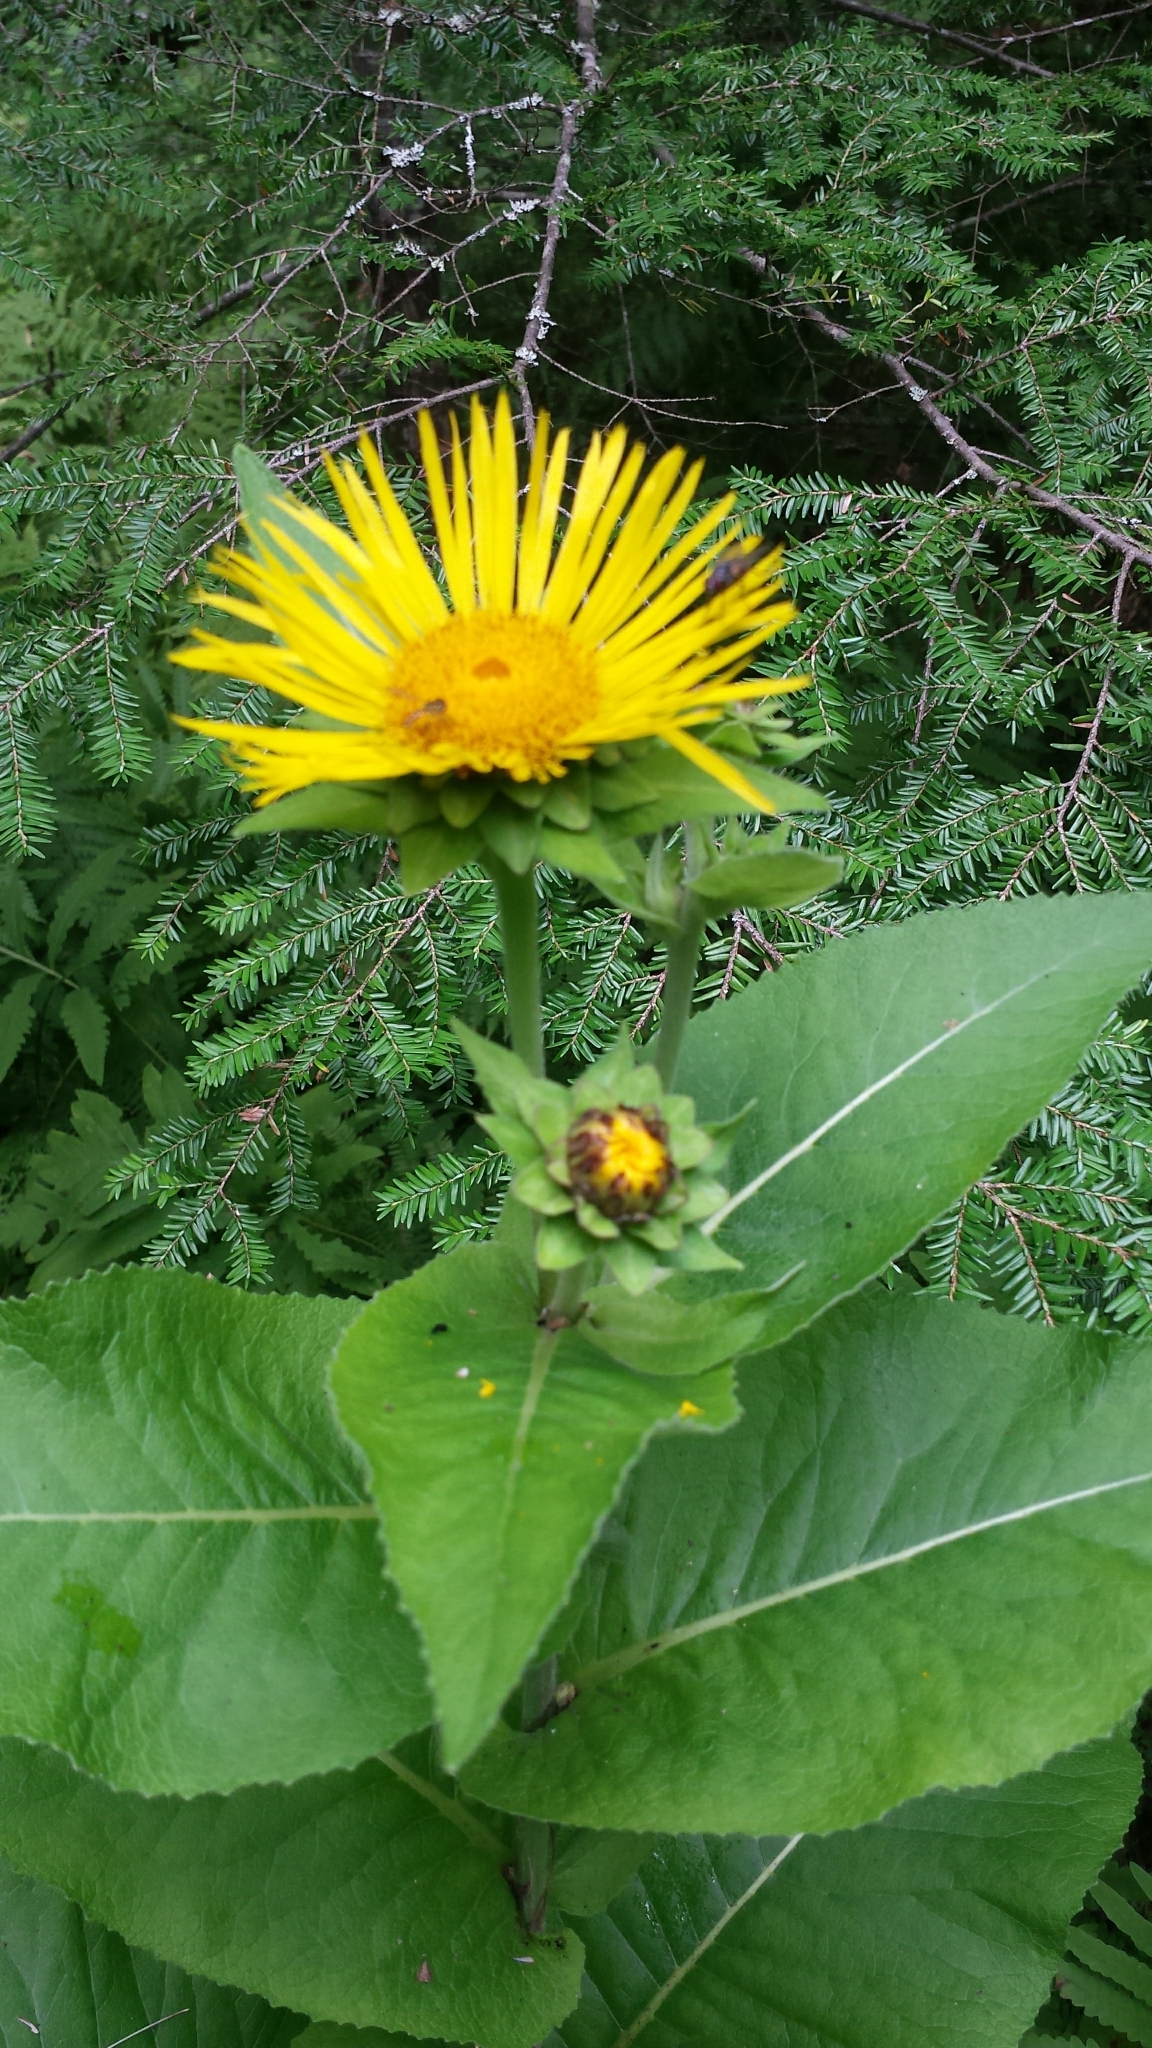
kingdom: Plantae
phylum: Tracheophyta
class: Magnoliopsida
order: Asterales
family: Asteraceae
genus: Inula
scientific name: Inula helenium
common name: Elecampane
